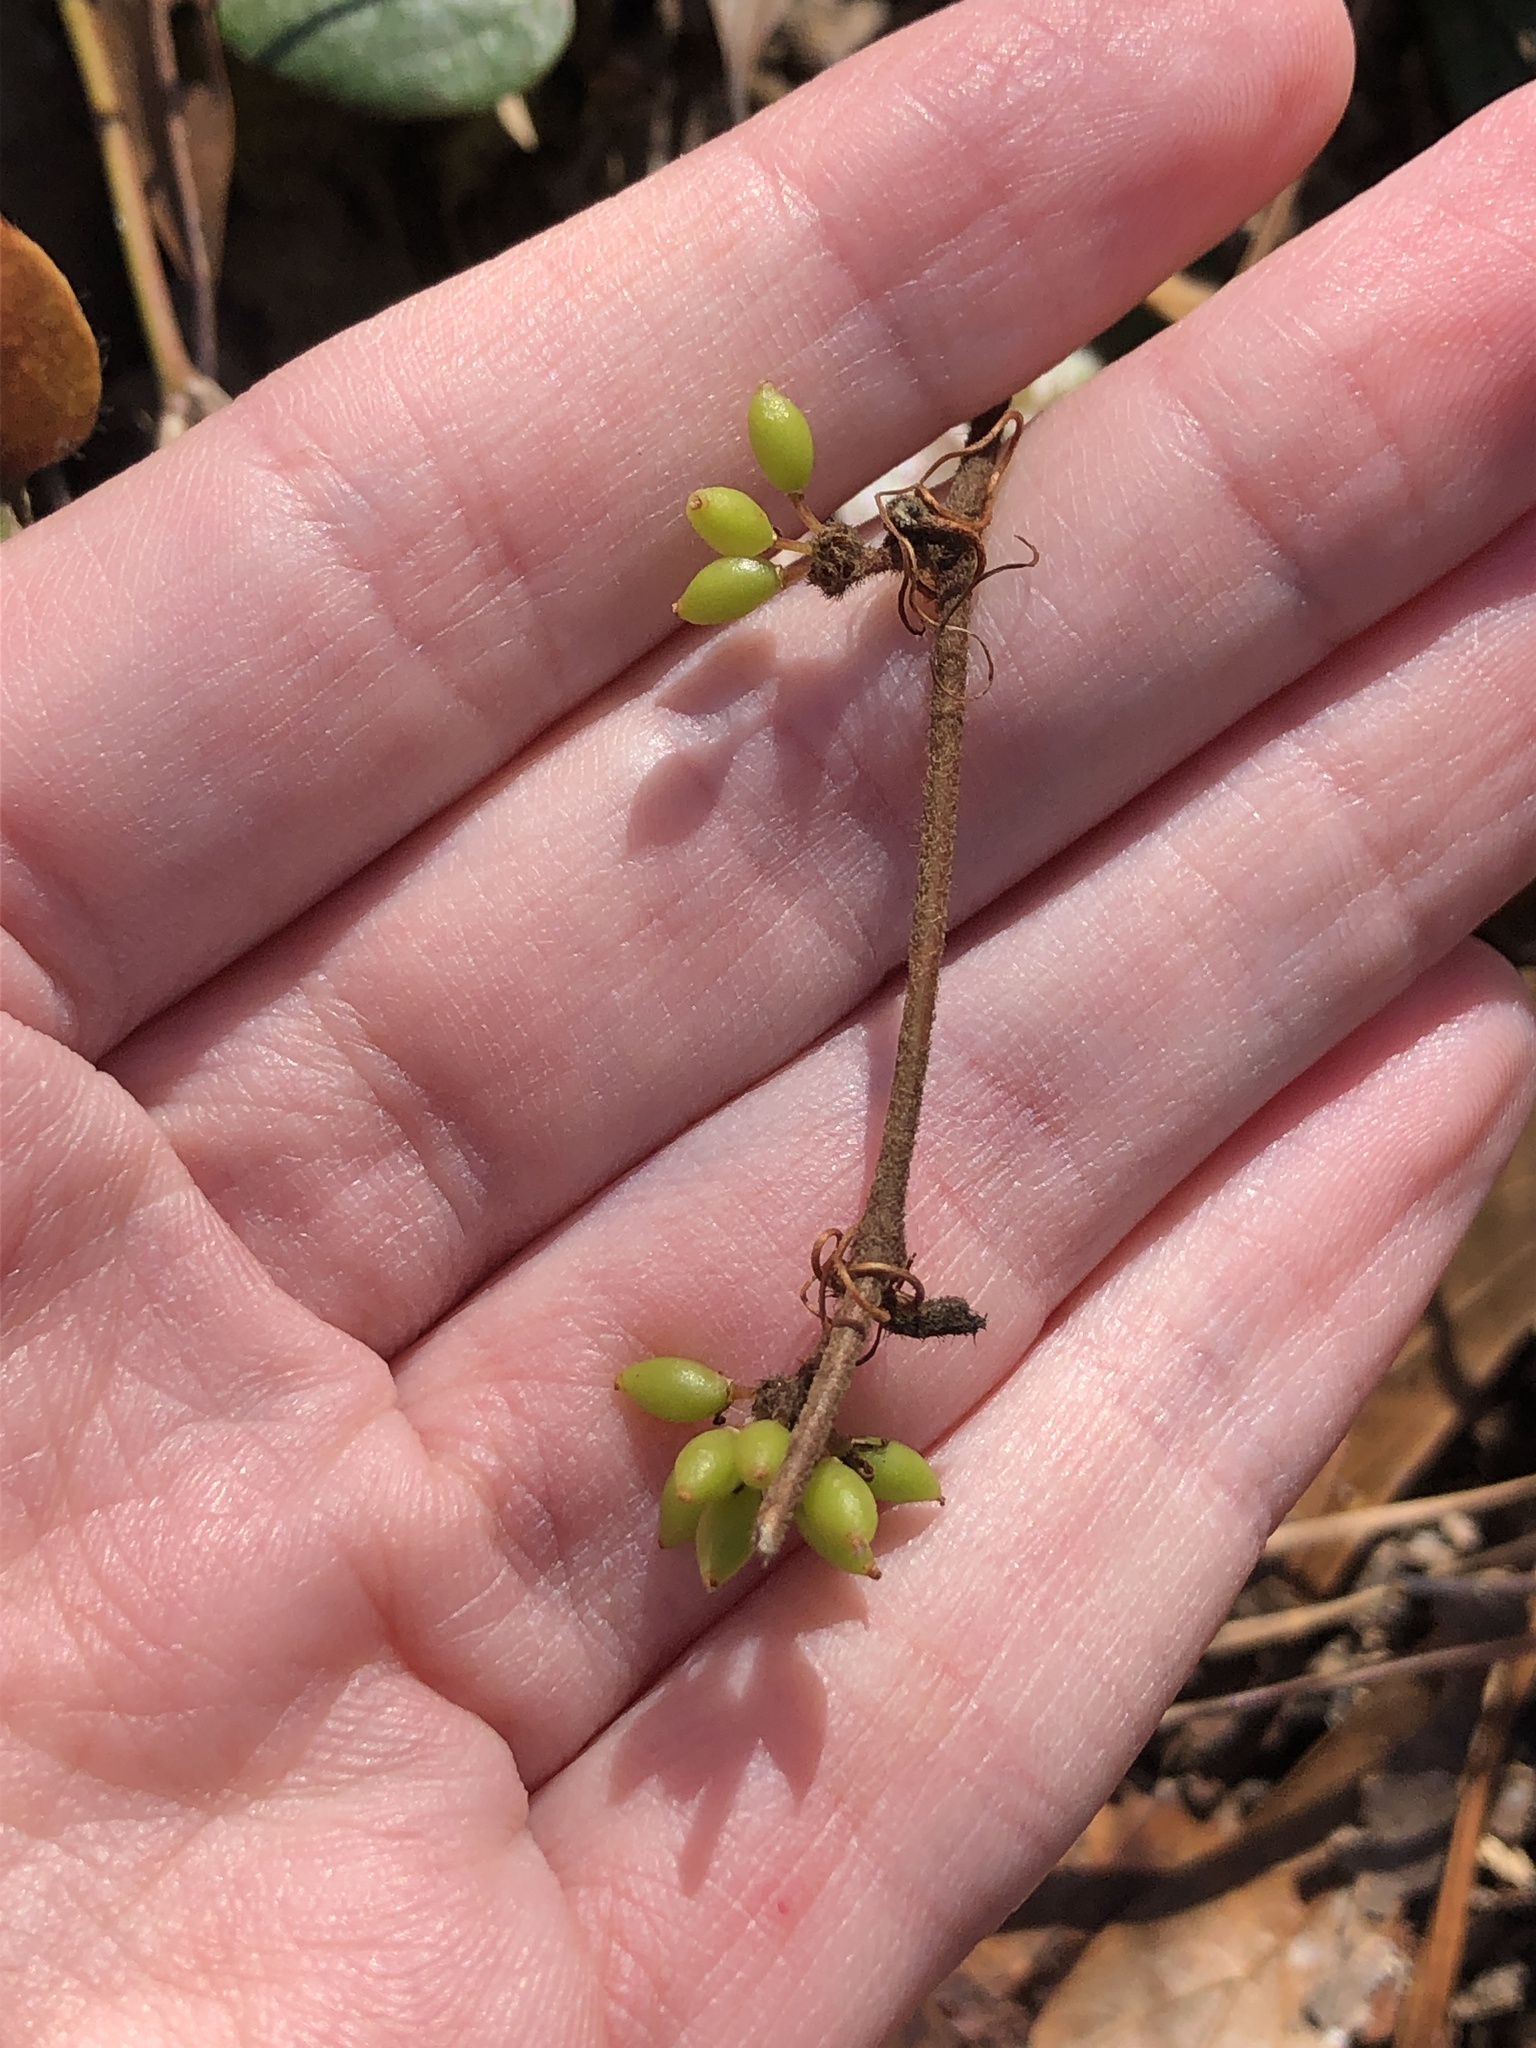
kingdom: Plantae
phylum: Tracheophyta
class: Liliopsida
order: Liliales
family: Smilacaceae
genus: Smilax
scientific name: Smilax pumila
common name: Sarsaparilla-vine
